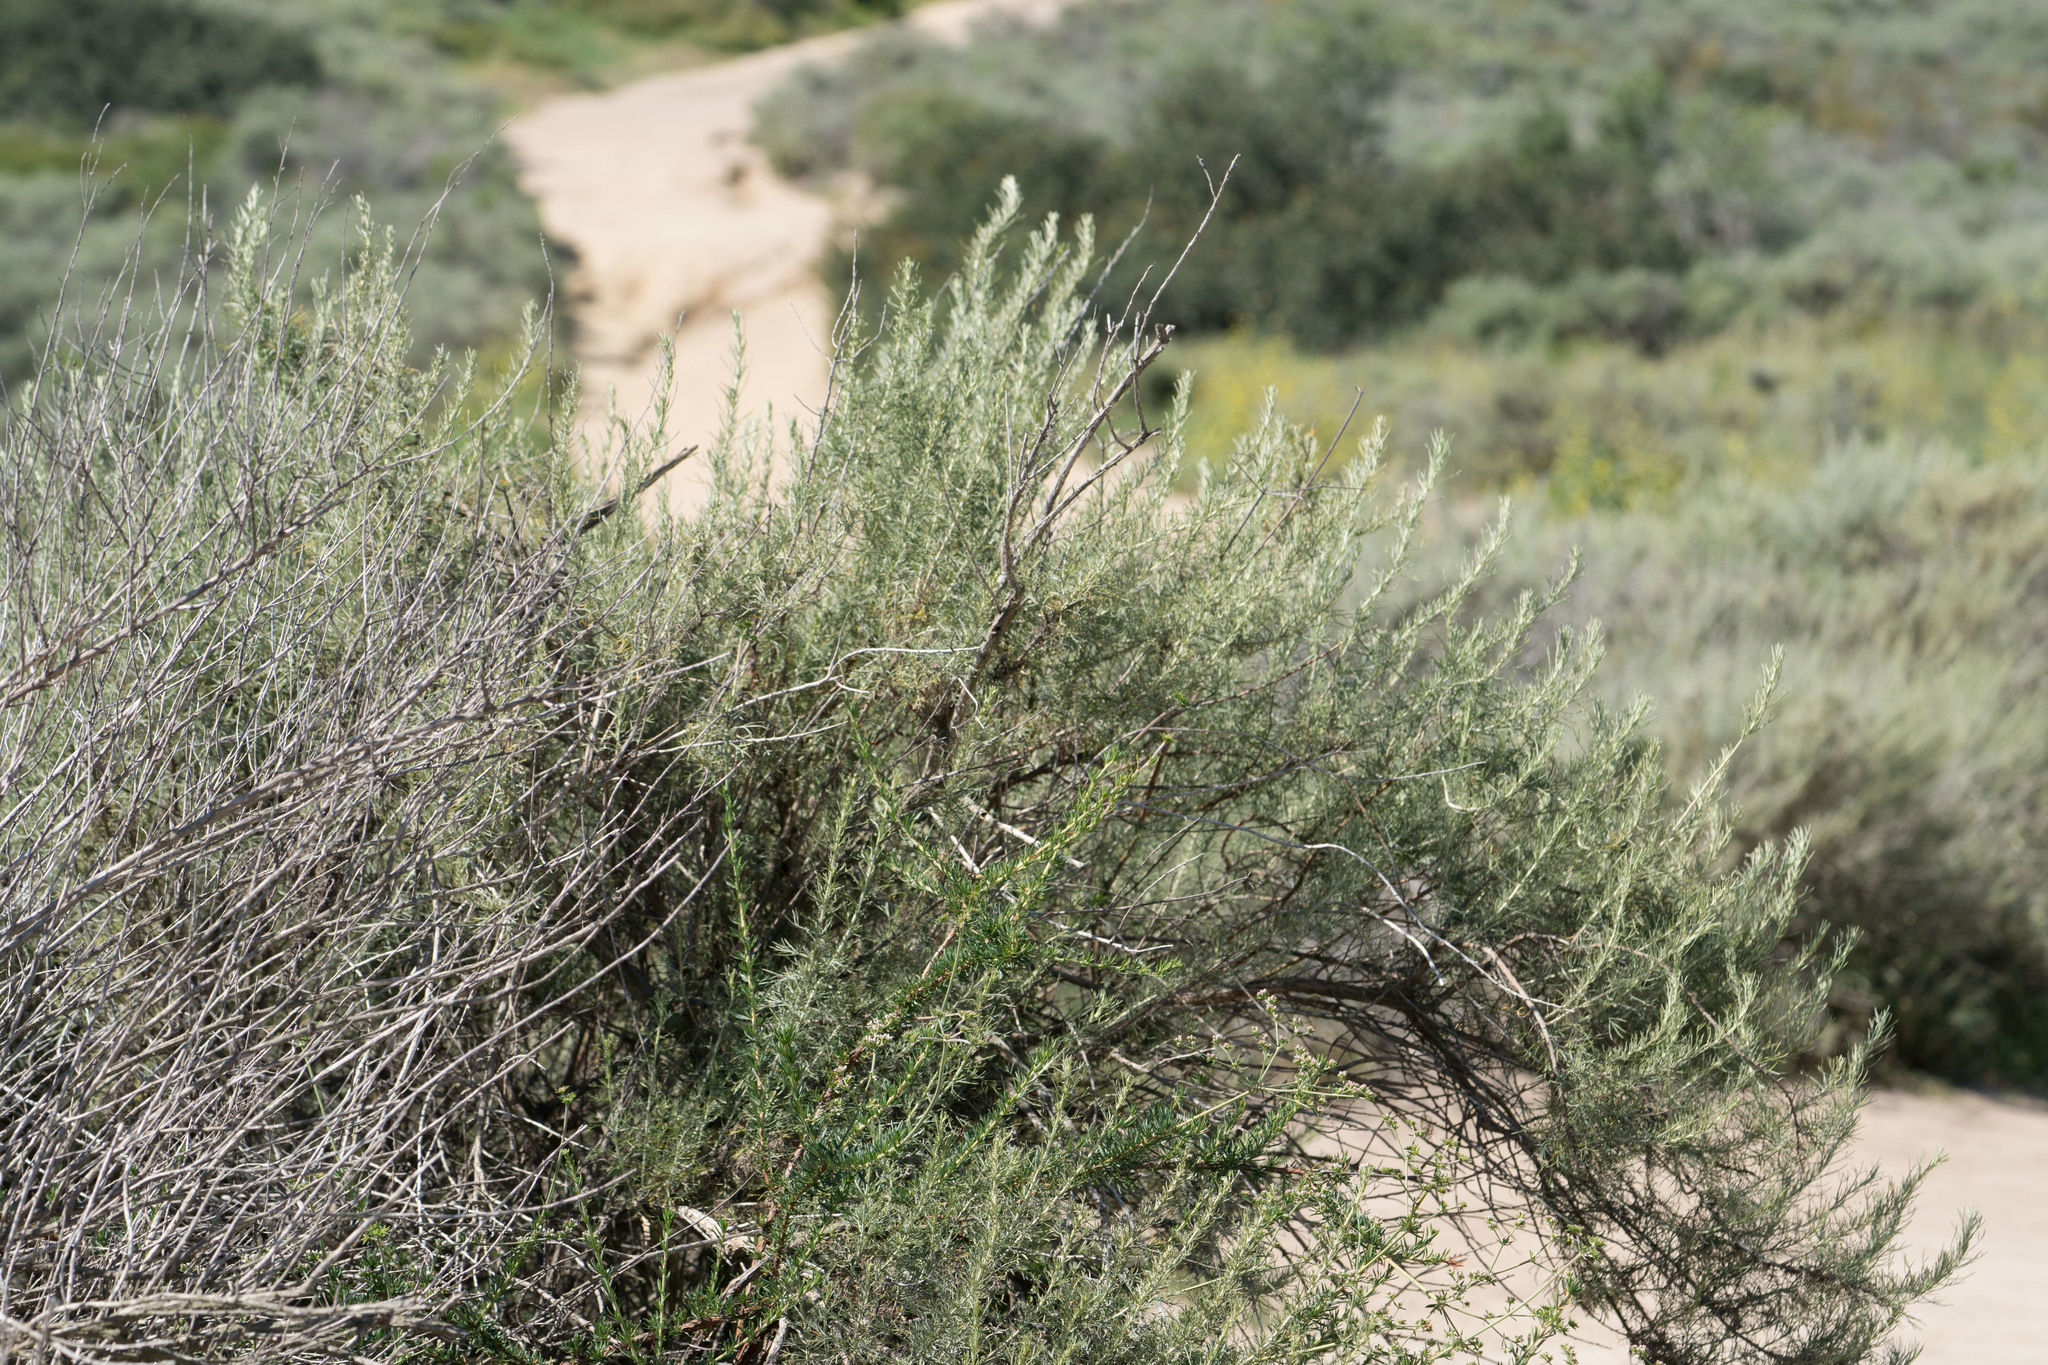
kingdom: Plantae
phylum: Tracheophyta
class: Magnoliopsida
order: Asterales
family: Asteraceae
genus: Artemisia
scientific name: Artemisia californica
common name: California sagebrush
